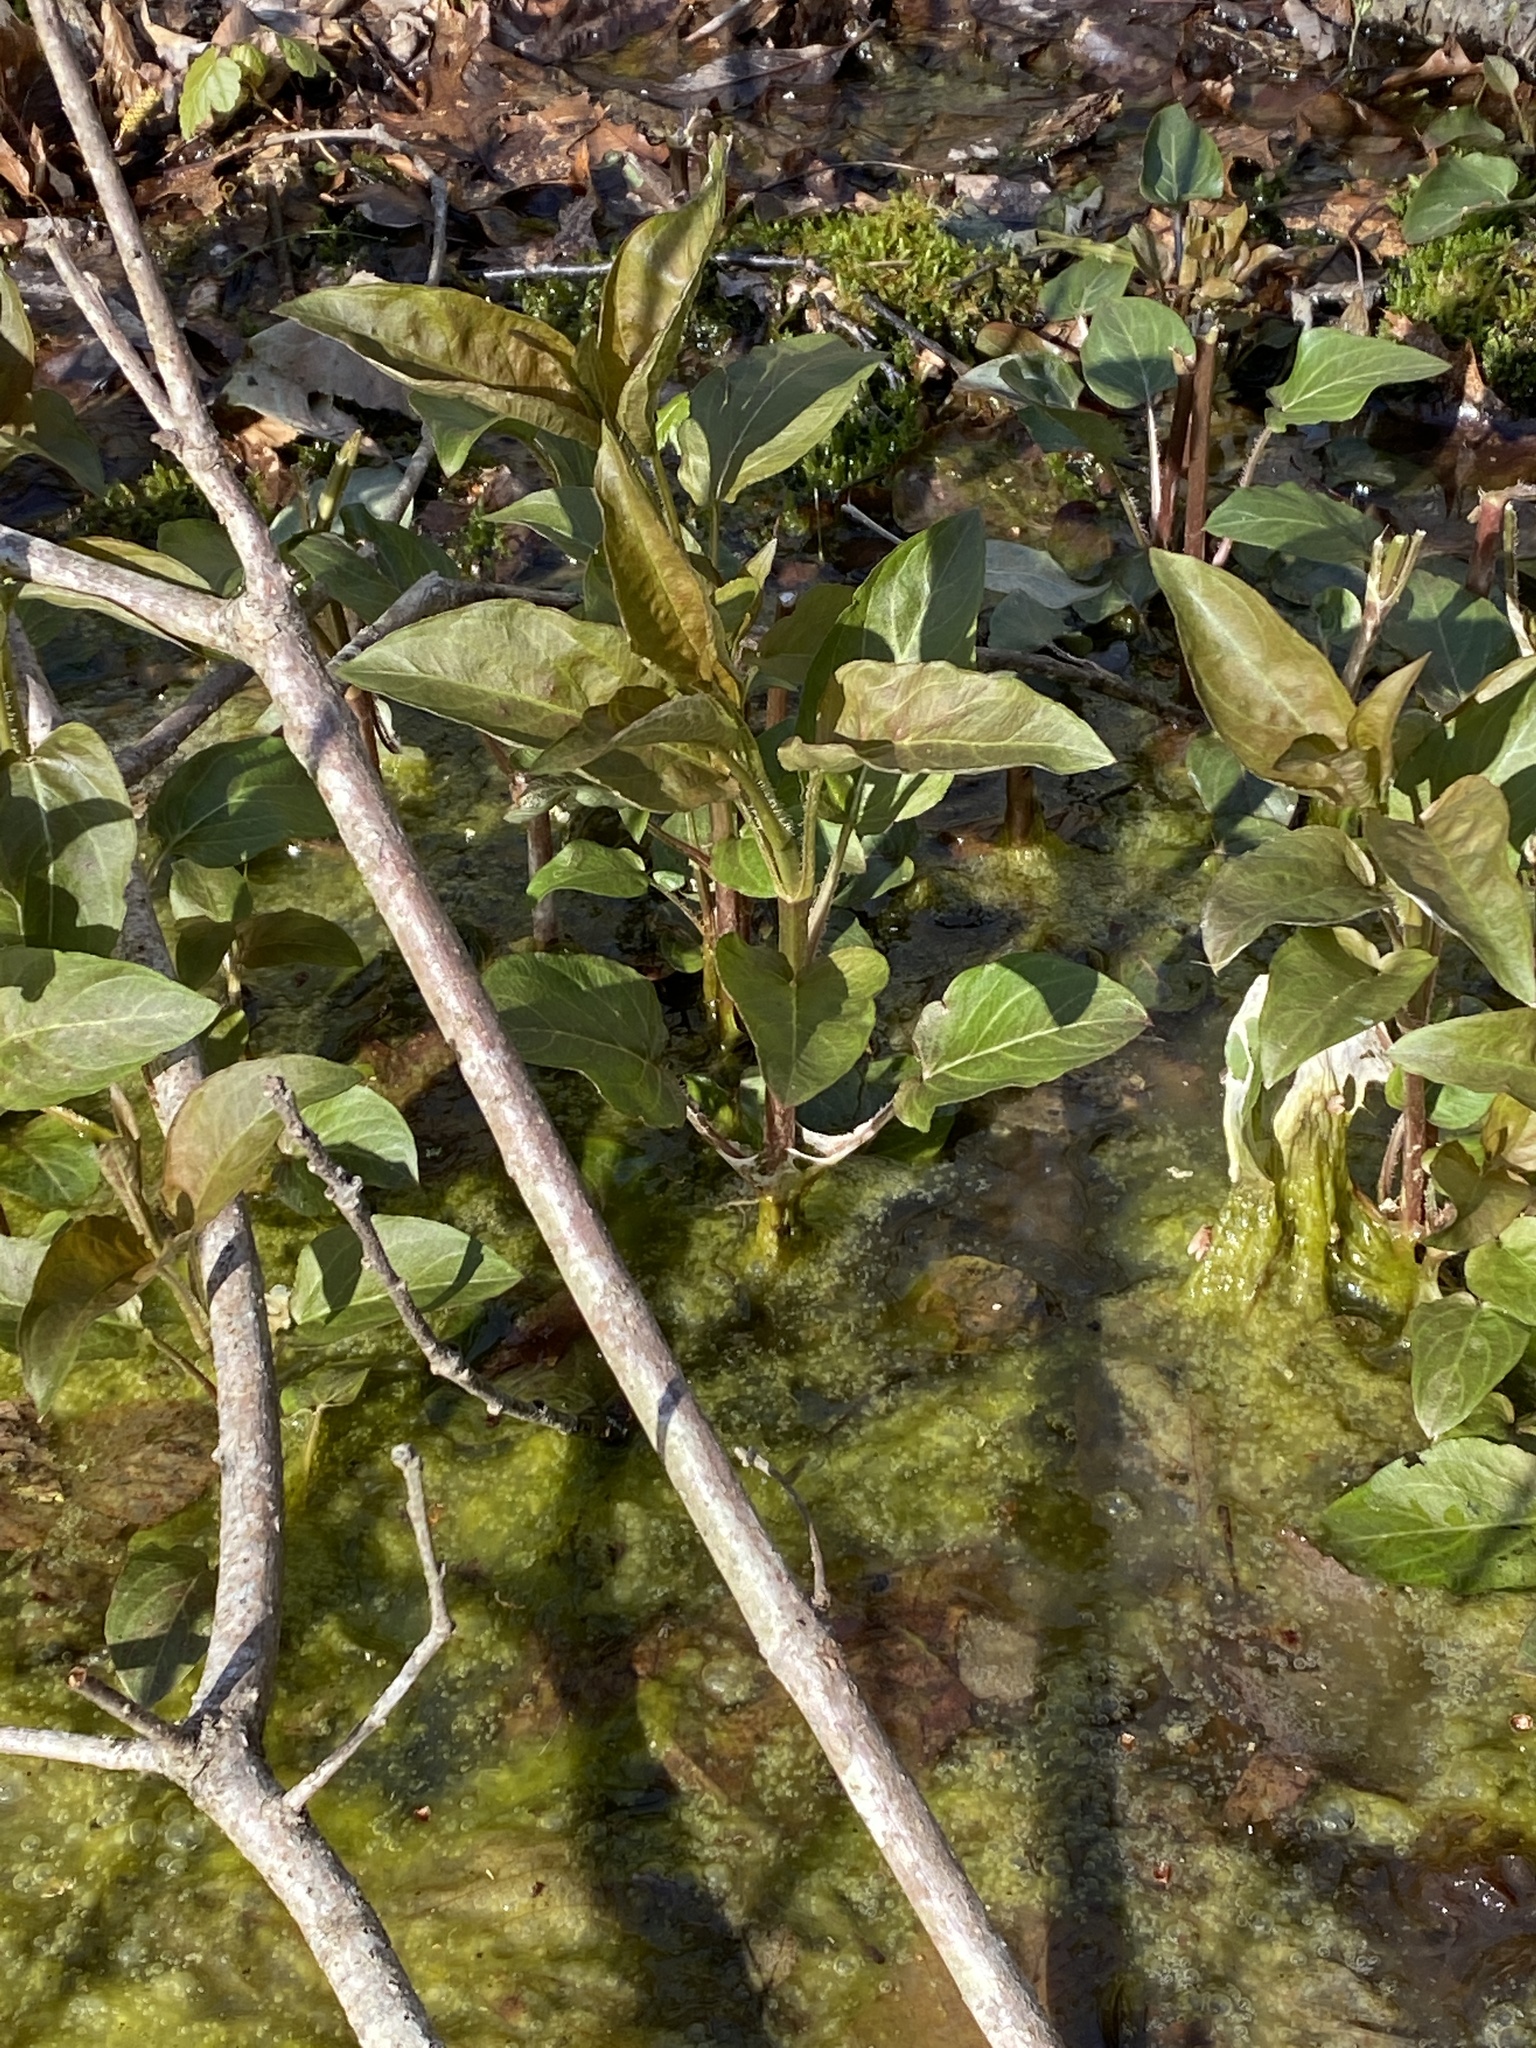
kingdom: Plantae
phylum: Tracheophyta
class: Magnoliopsida
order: Ericales
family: Primulaceae
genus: Lysimachia
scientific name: Lysimachia ciliata
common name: Fringed loosestrife
